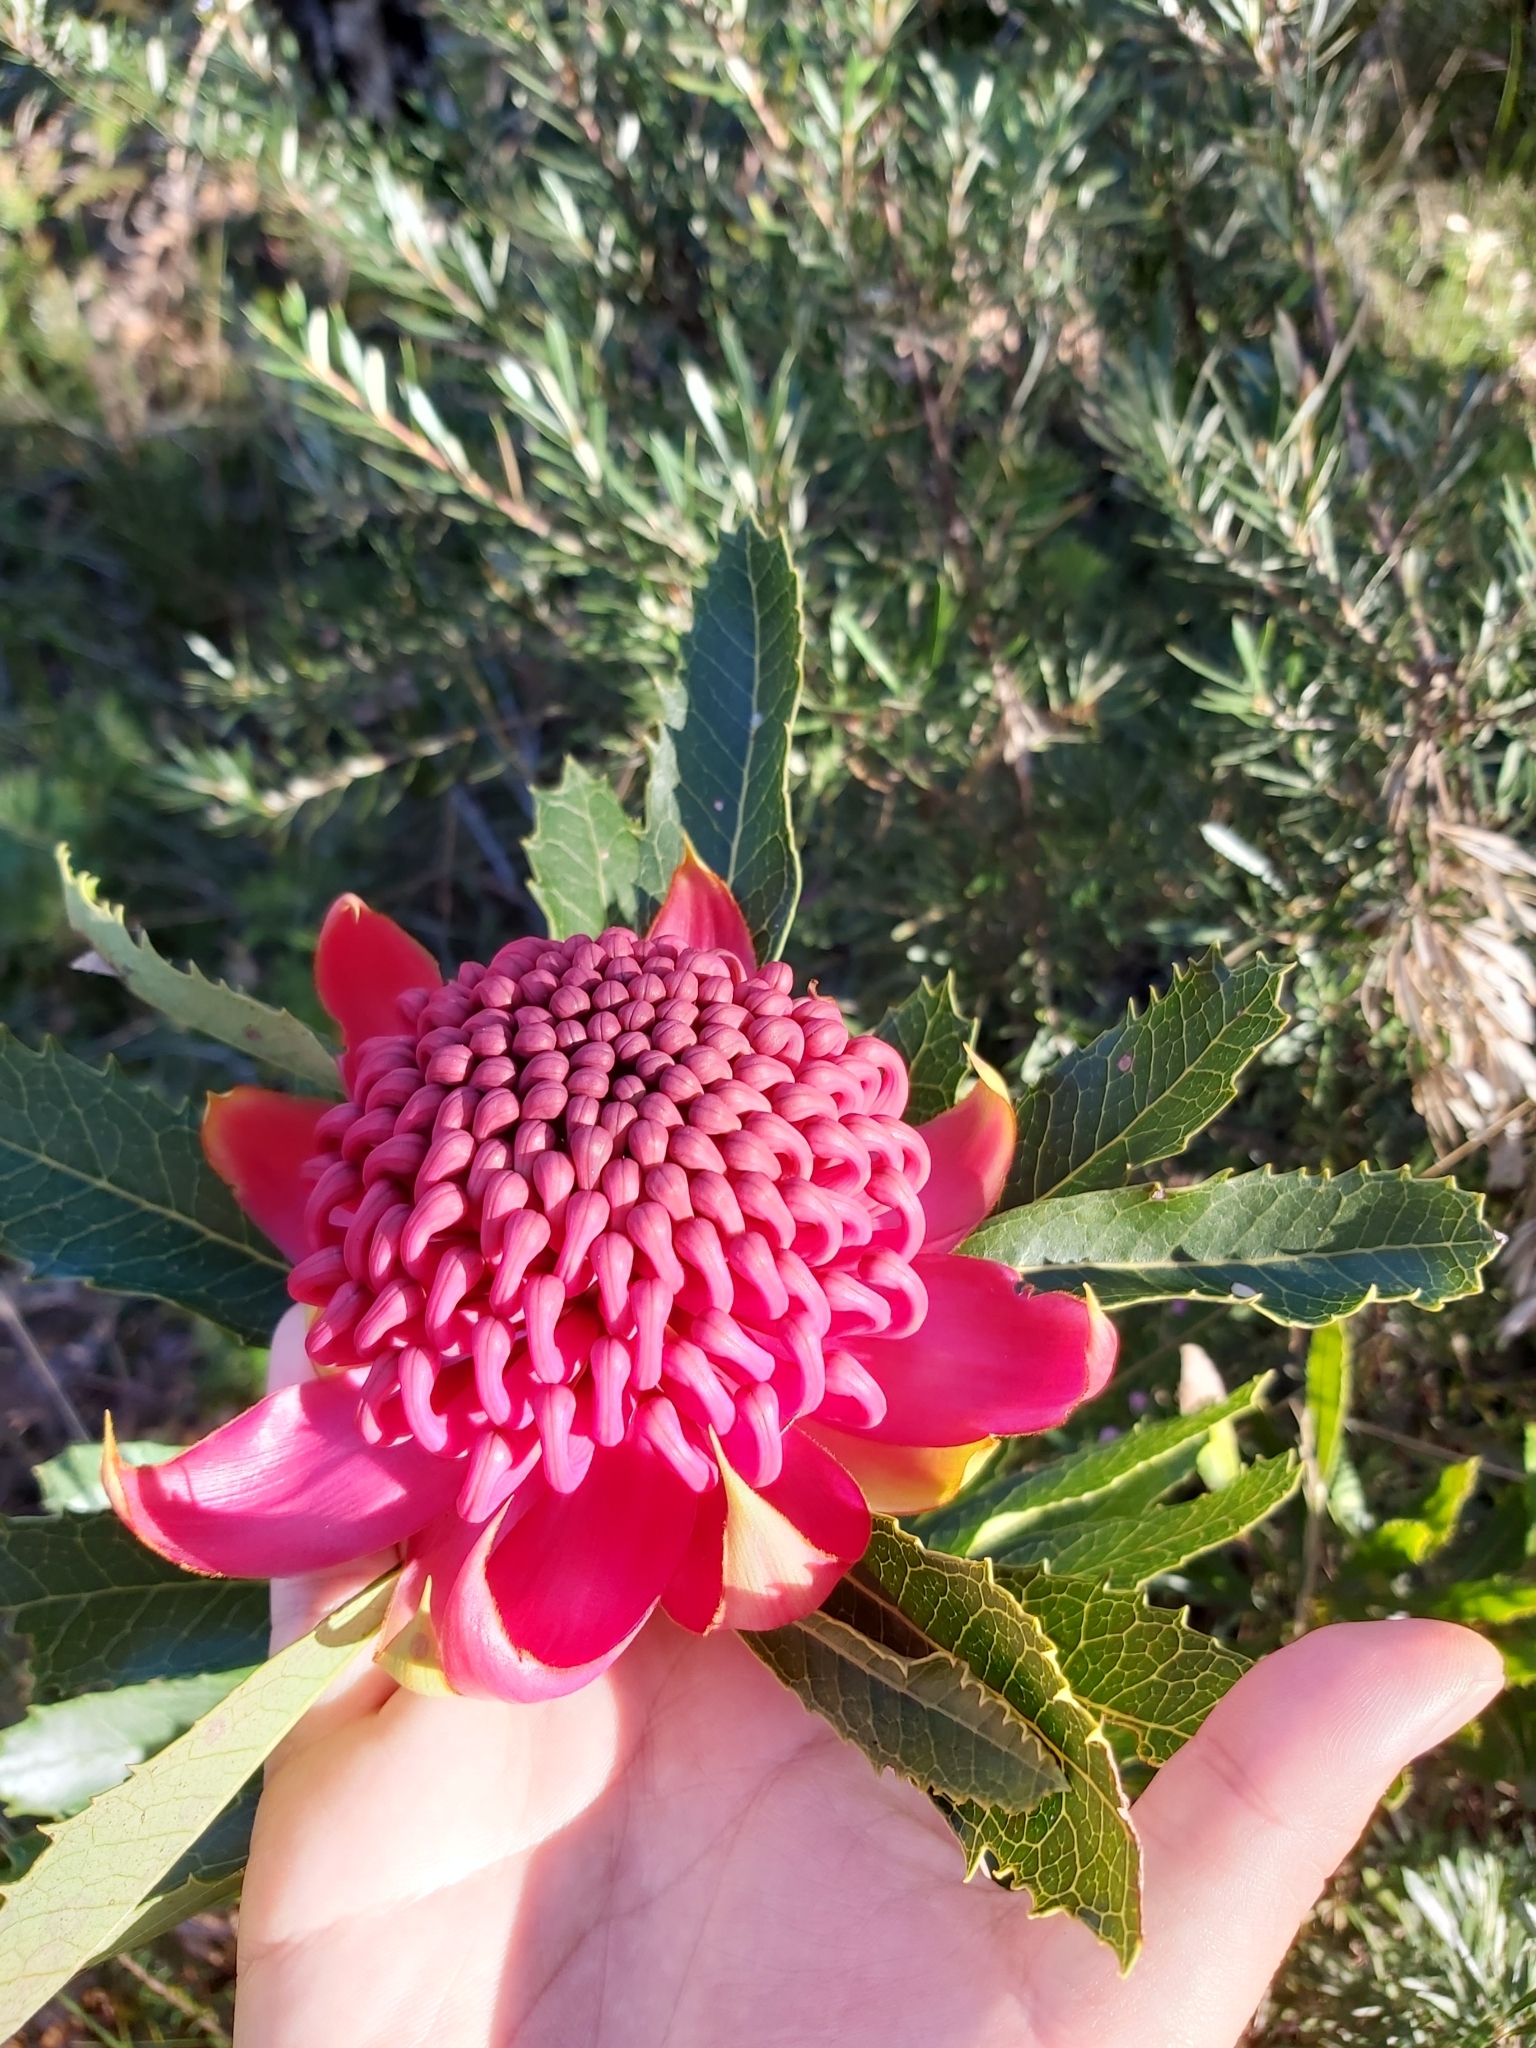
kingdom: Plantae
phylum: Tracheophyta
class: Magnoliopsida
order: Proteales
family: Proteaceae
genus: Telopea
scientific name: Telopea speciosissima
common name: New south wales waratah
